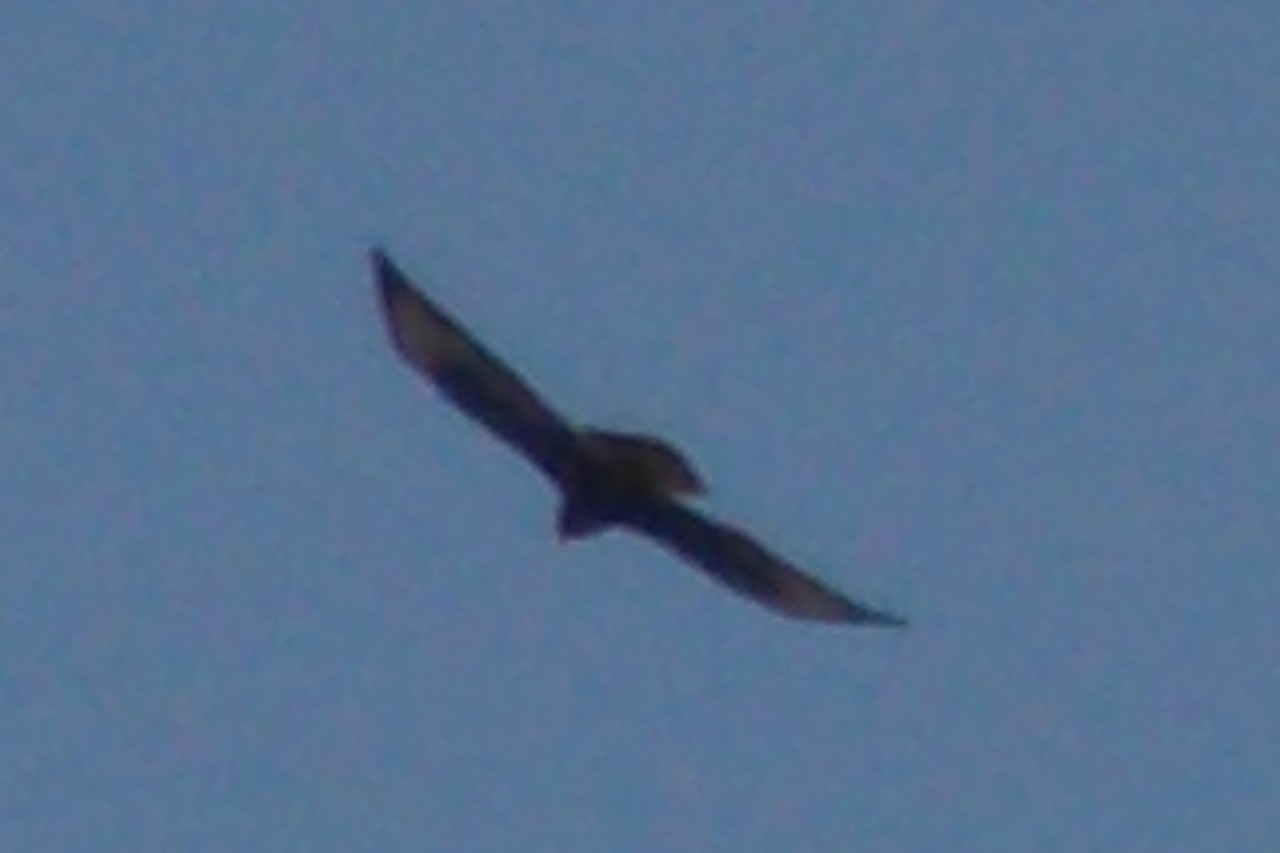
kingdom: Animalia
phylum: Chordata
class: Aves
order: Accipitriformes
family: Accipitridae
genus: Buteo
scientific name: Buteo buteo
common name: Common buzzard
